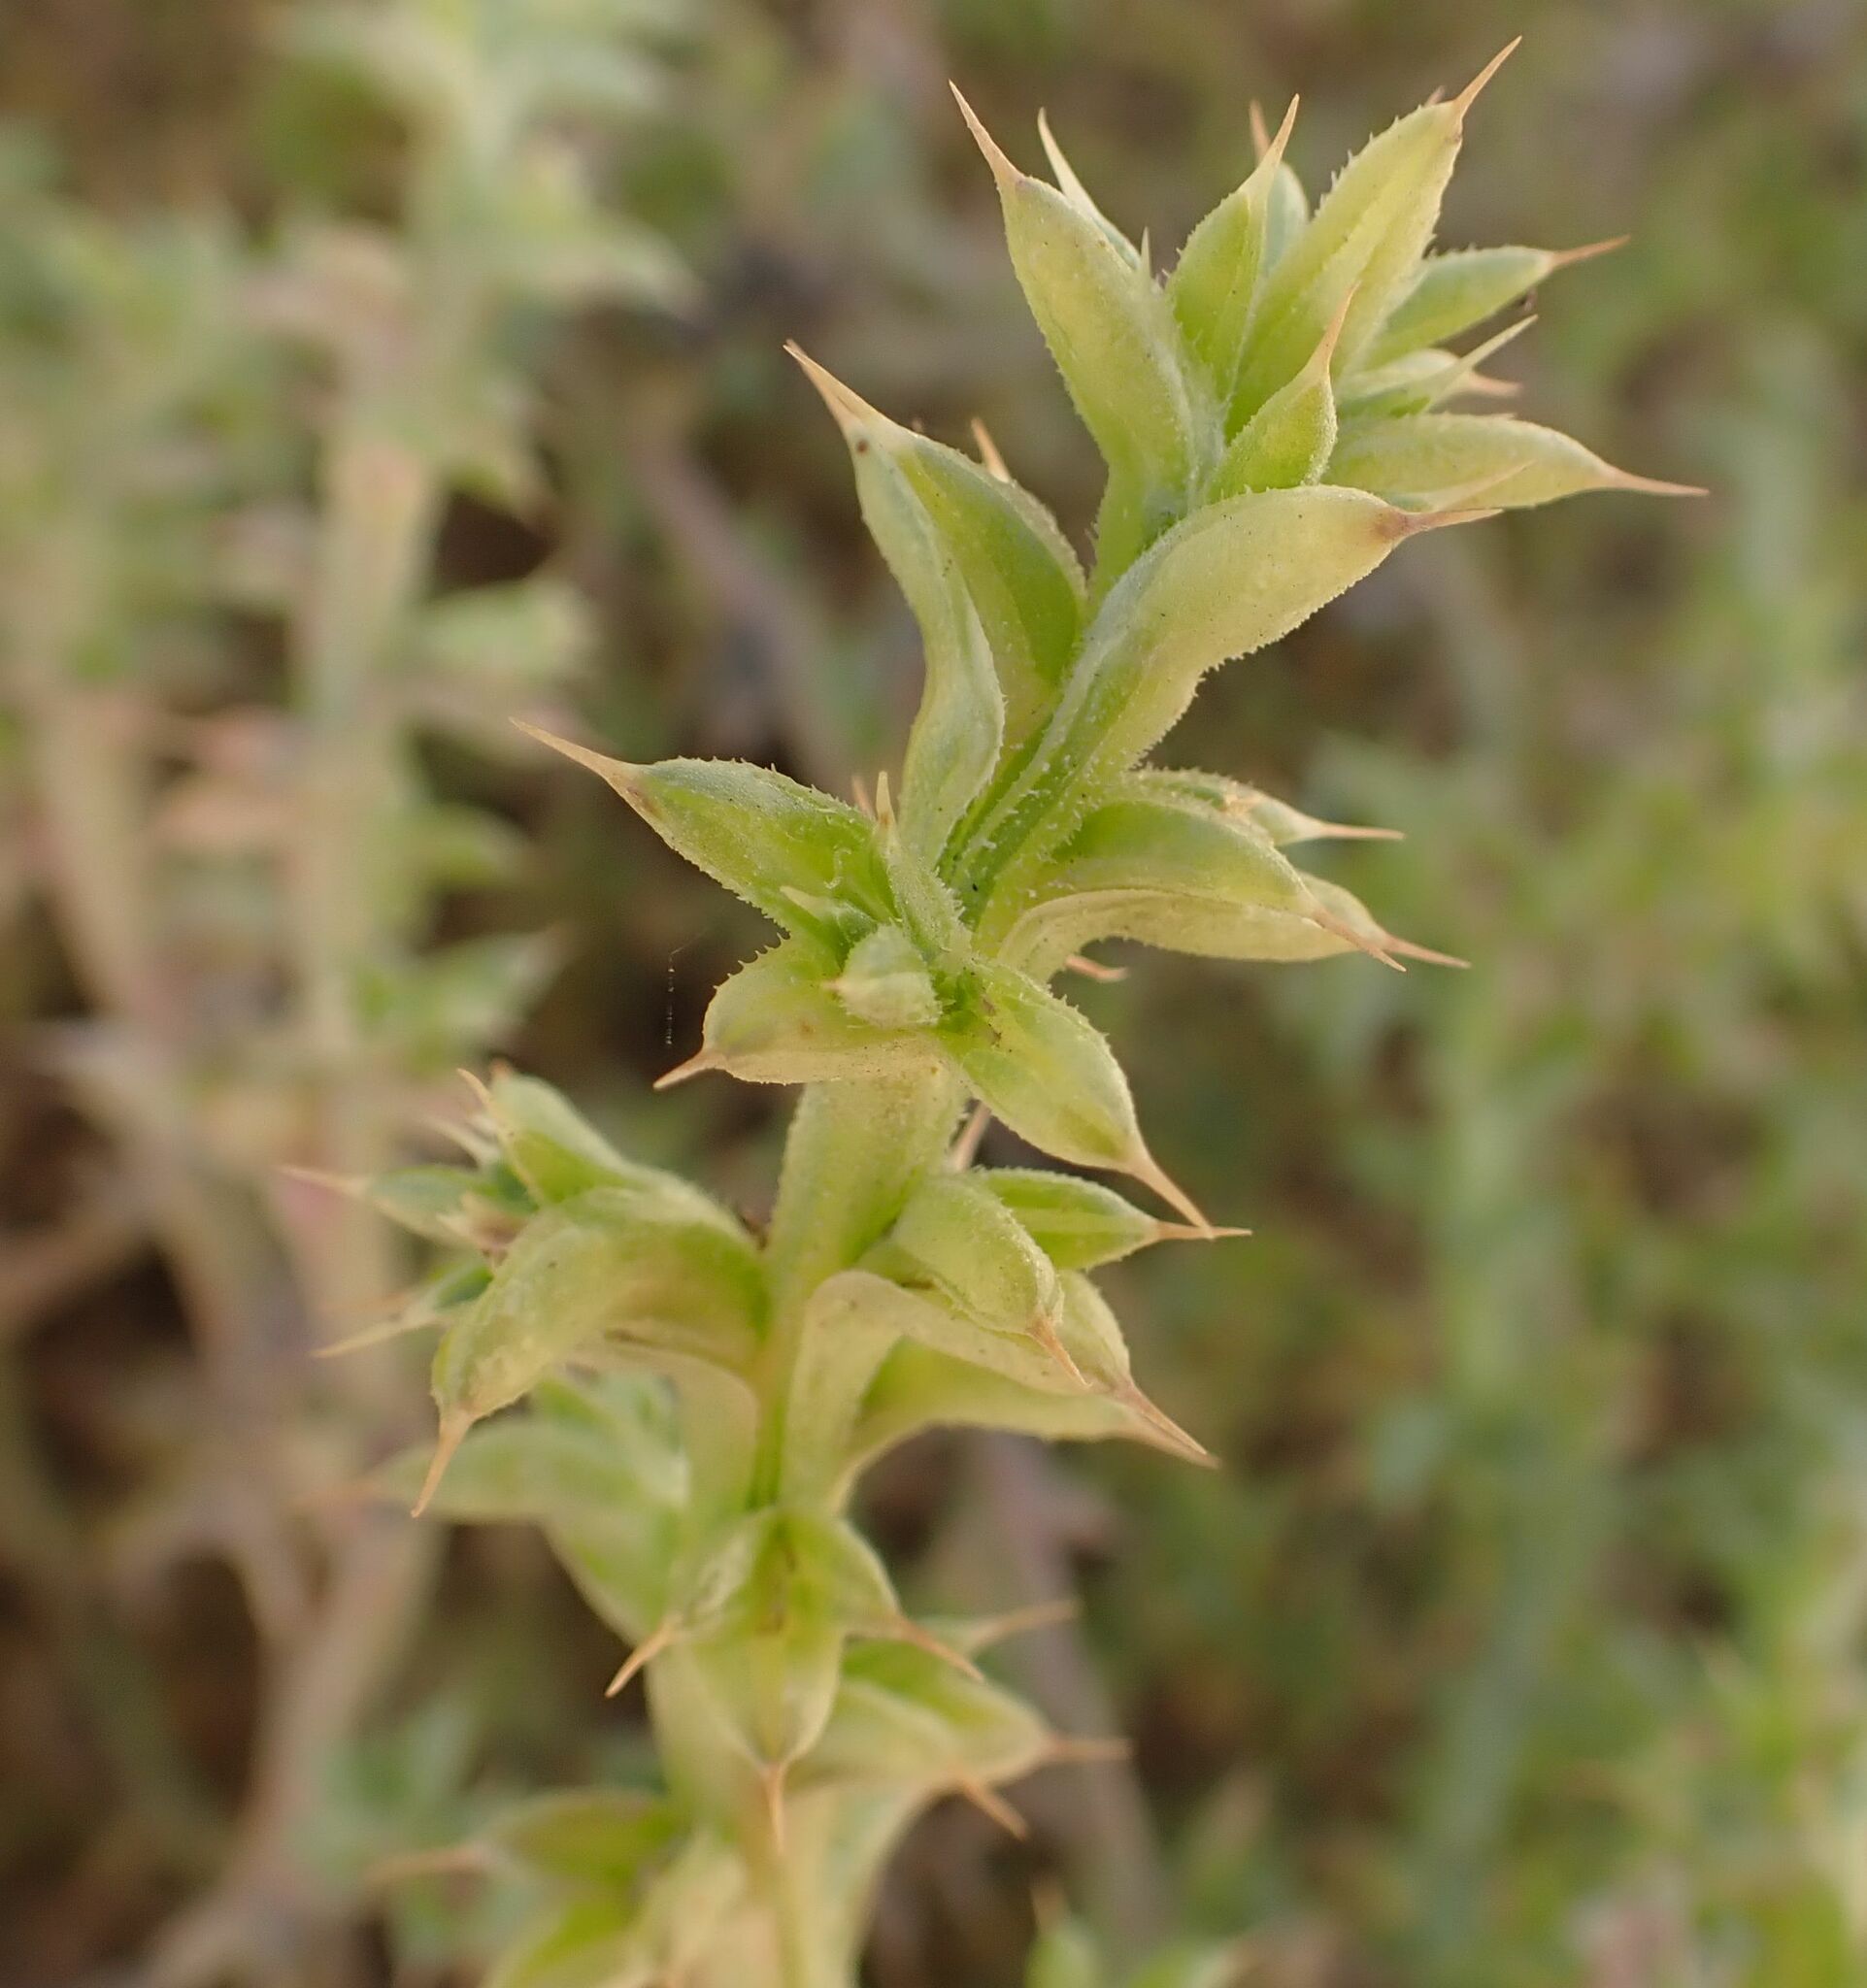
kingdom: Plantae
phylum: Tracheophyta
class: Magnoliopsida
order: Caryophyllales
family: Amaranthaceae
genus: Salsola
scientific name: Salsola kali
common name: Saltwort
